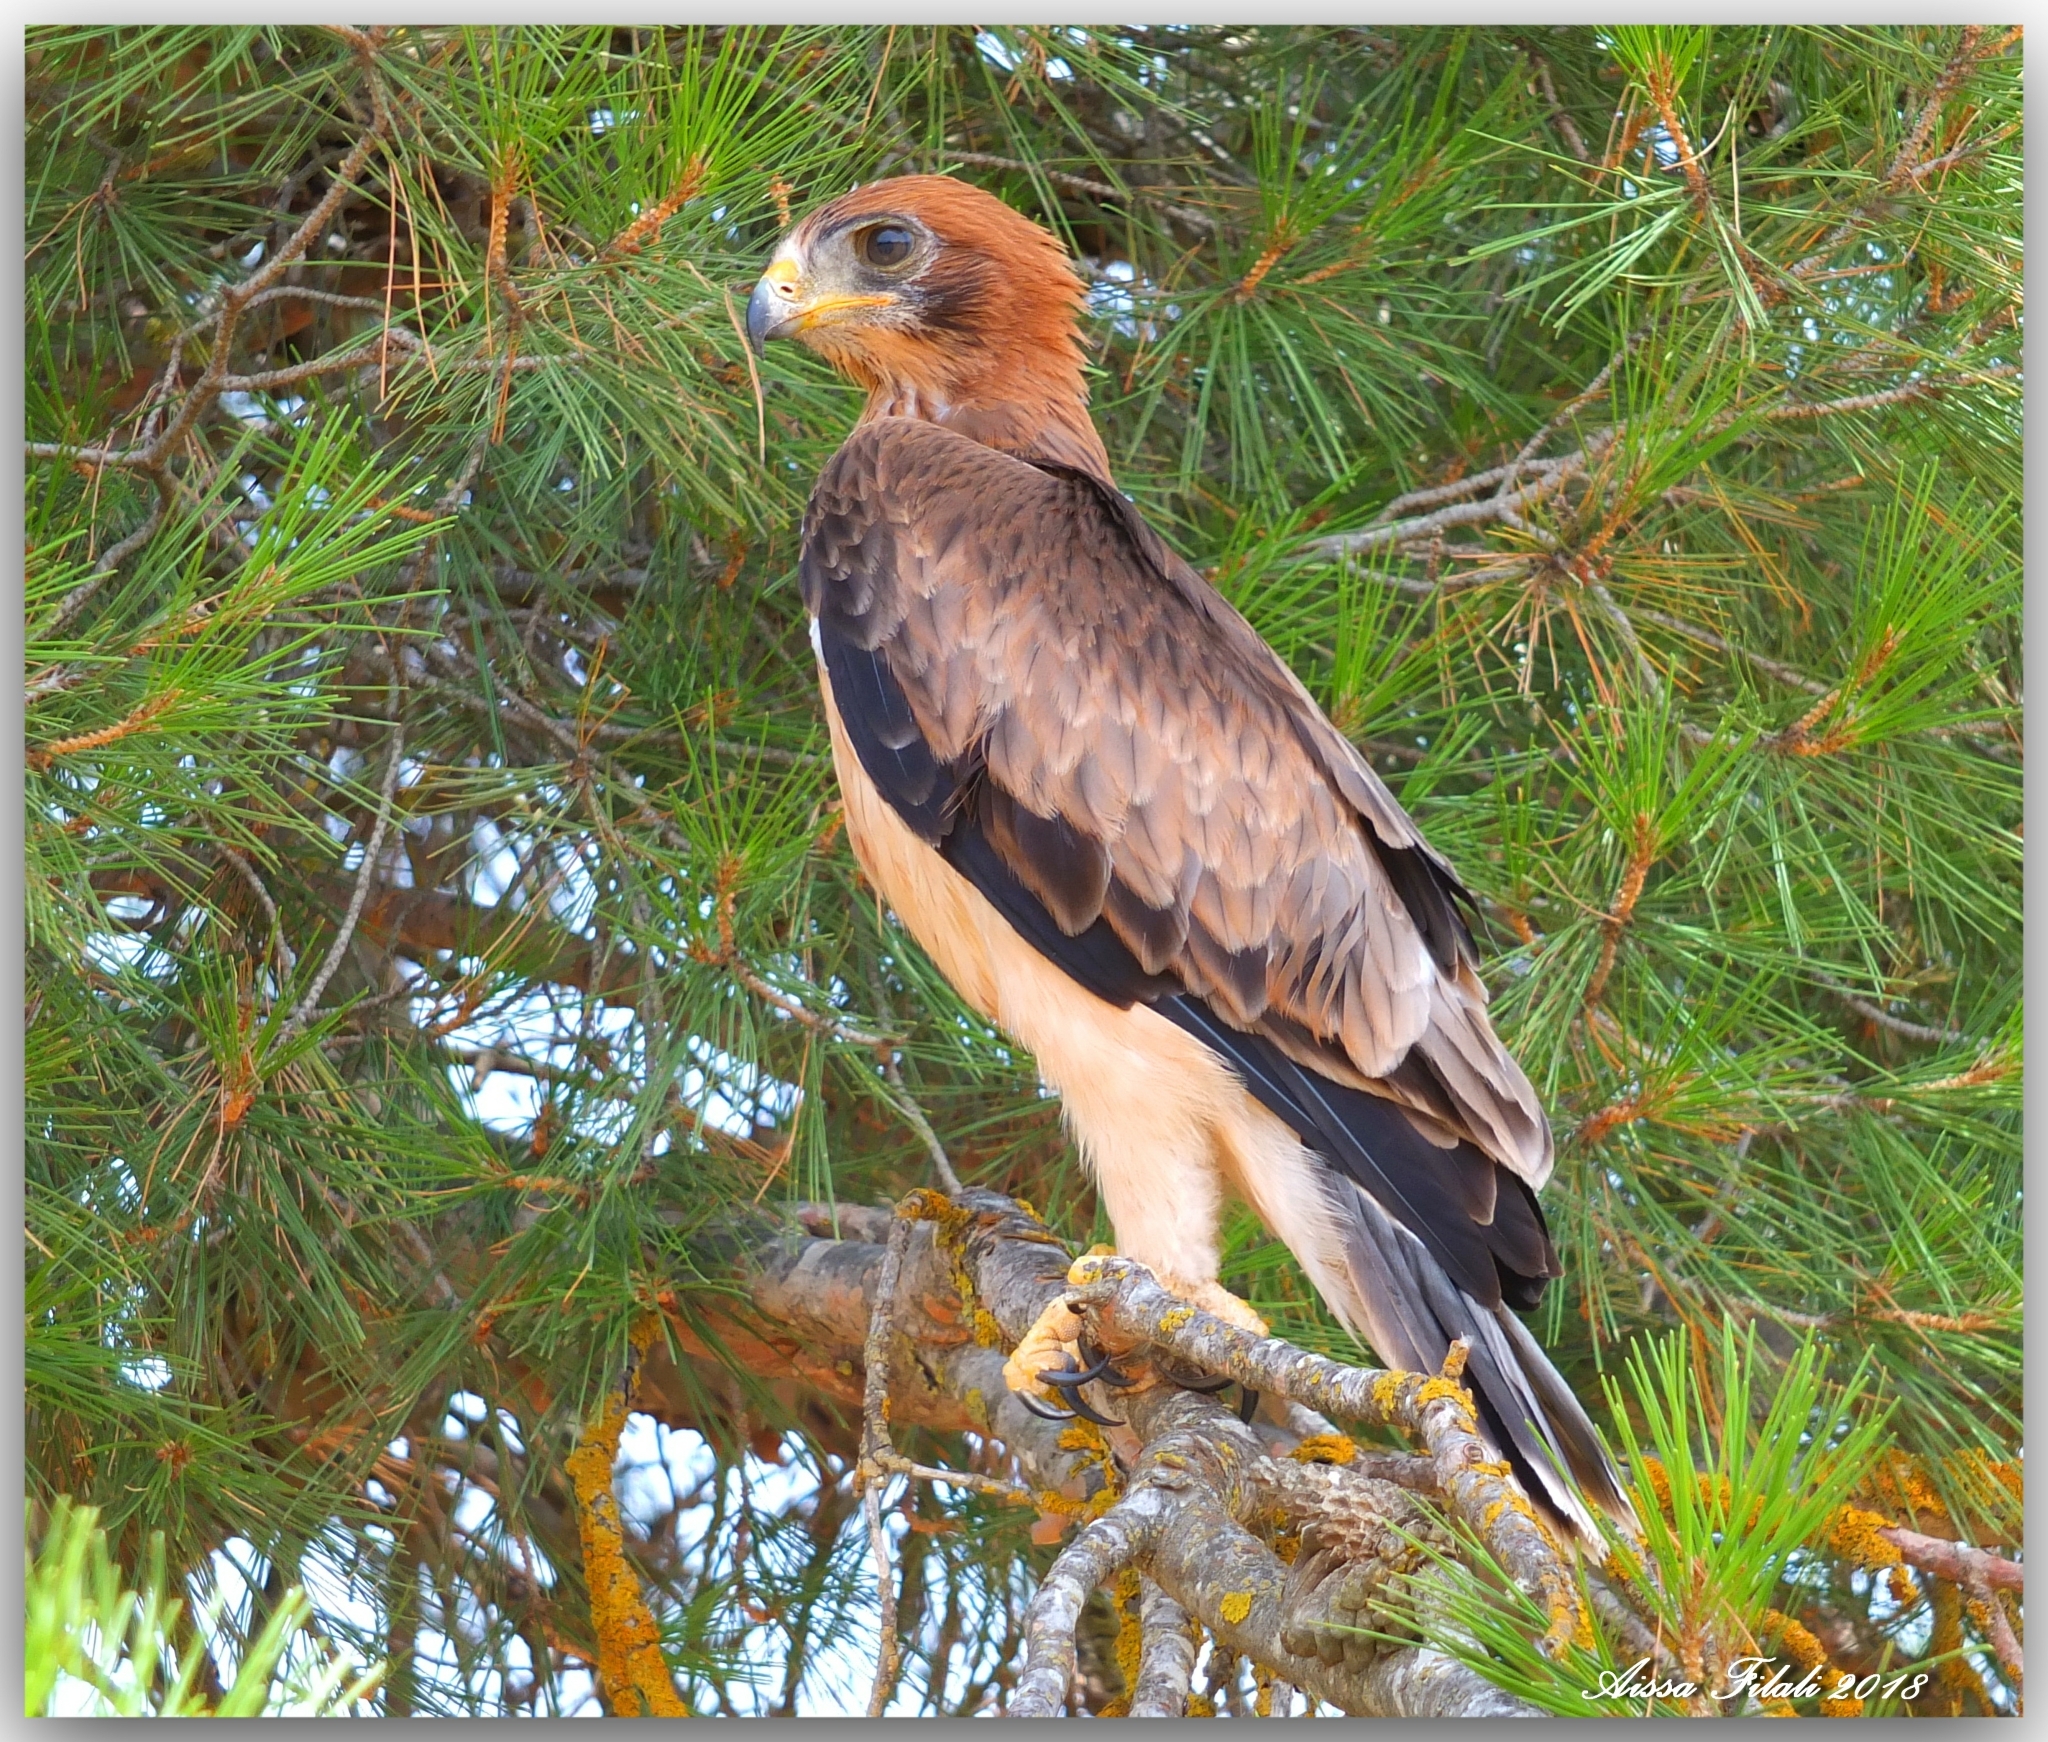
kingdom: Animalia
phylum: Chordata
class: Aves
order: Accipitriformes
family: Accipitridae
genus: Hieraaetus
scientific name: Hieraaetus pennatus
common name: Booted eagle
